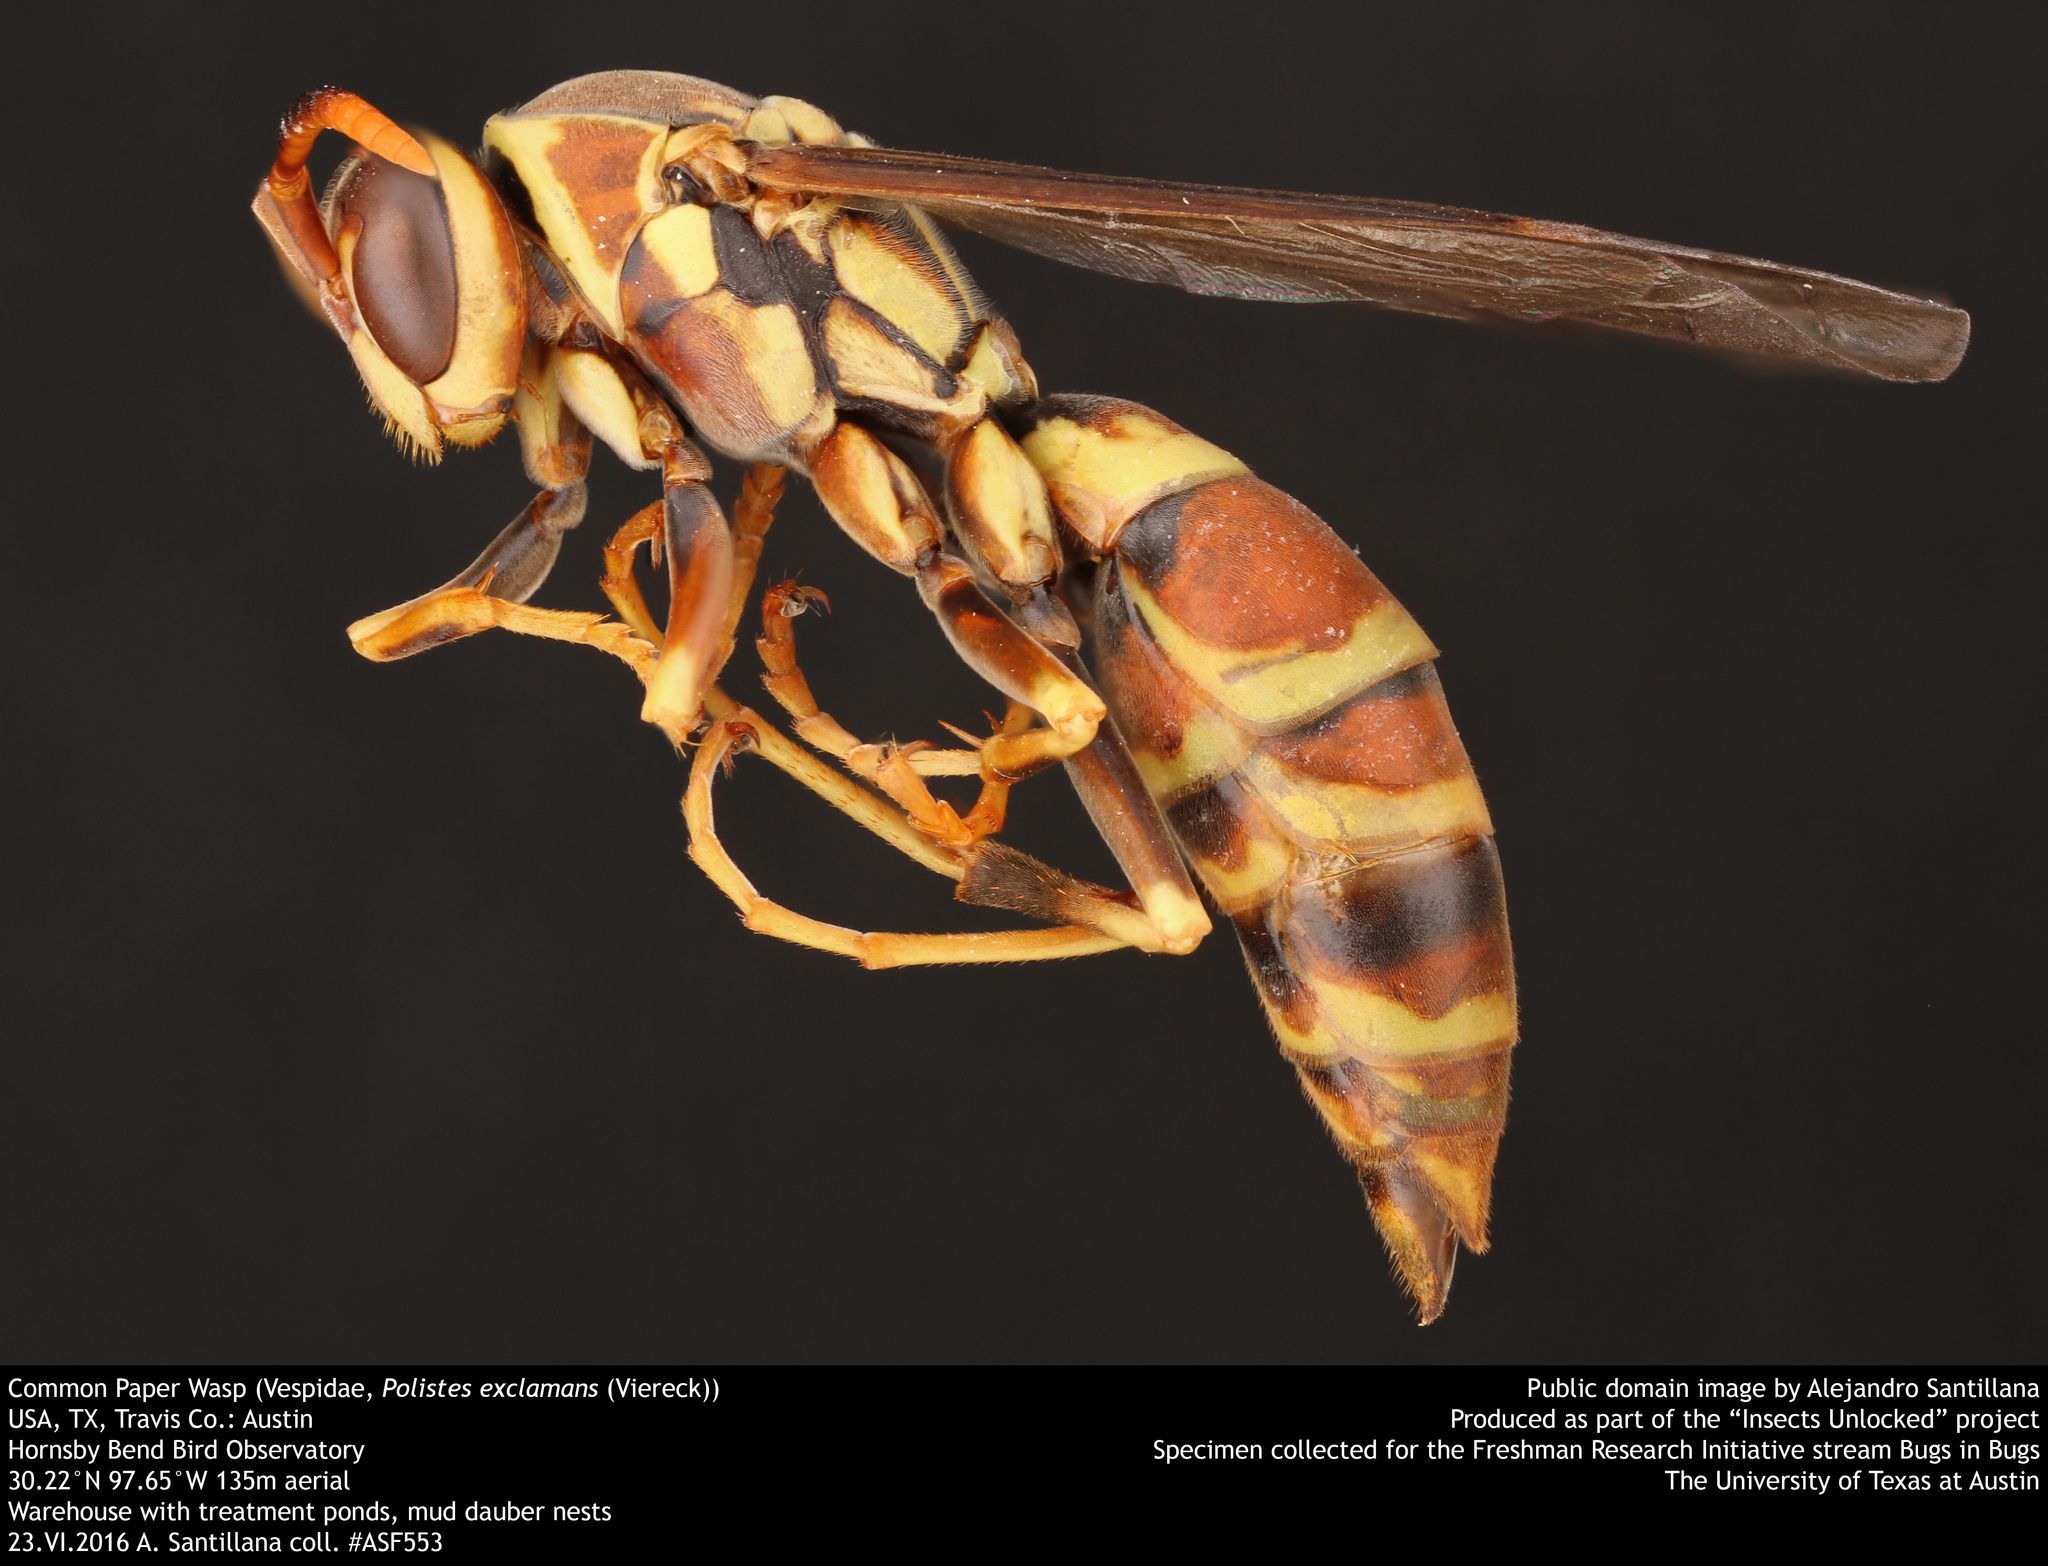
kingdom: Animalia
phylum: Arthropoda
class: Insecta
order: Hymenoptera
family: Eumenidae
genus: Polistes
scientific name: Polistes exclamans
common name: Paper wasp
